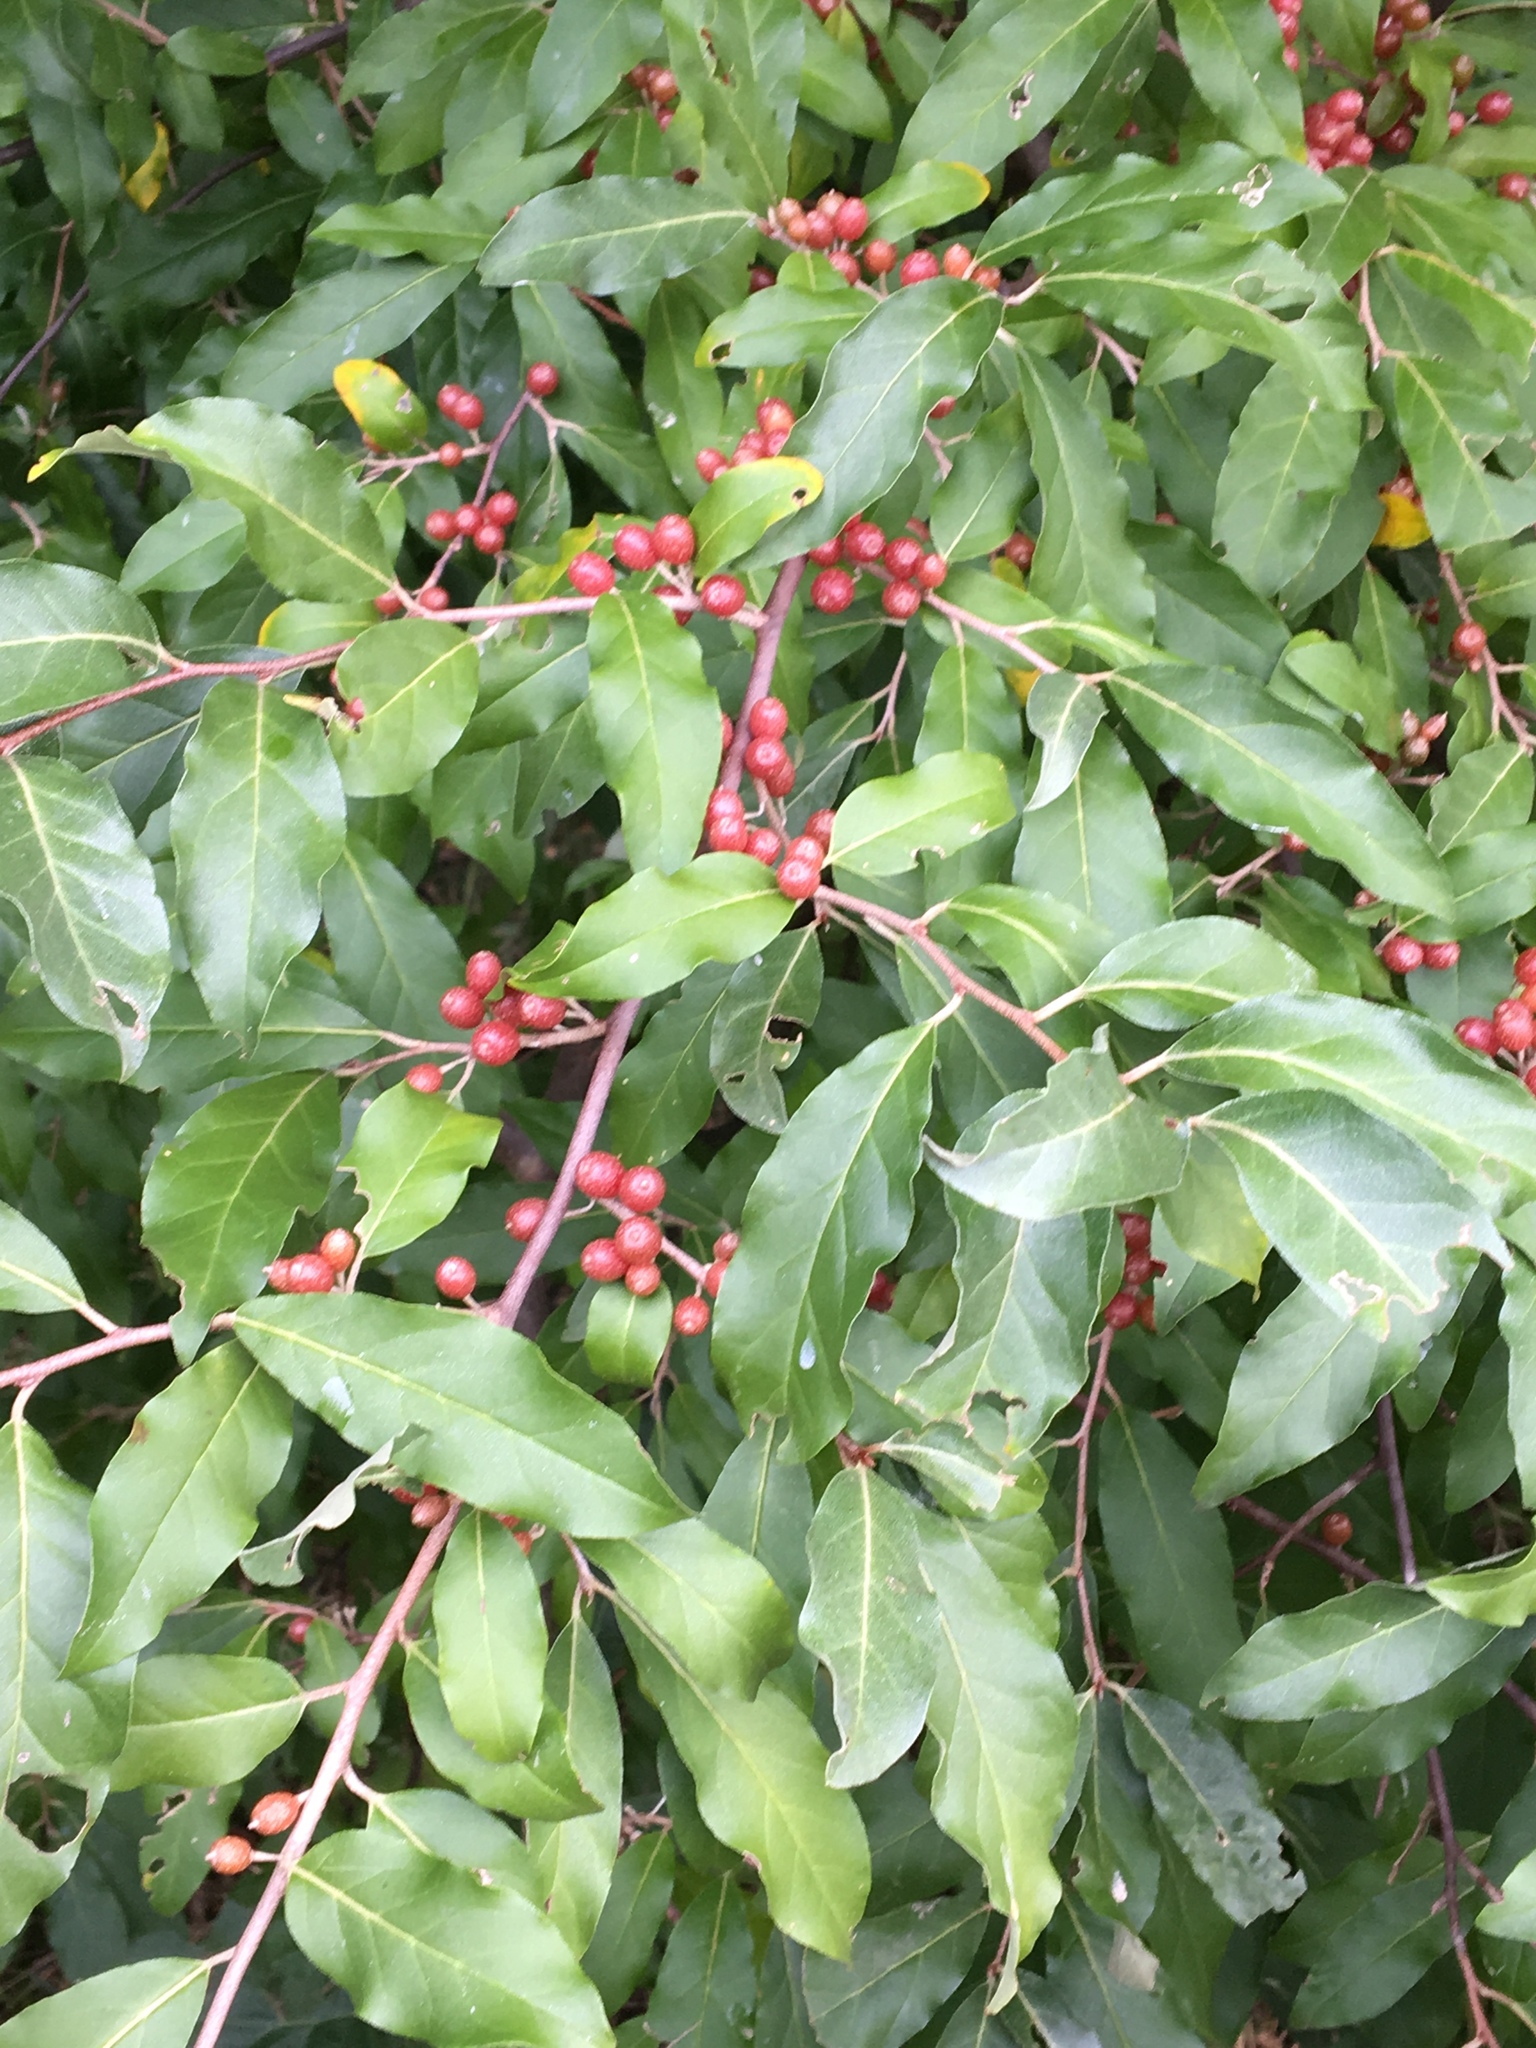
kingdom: Plantae
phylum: Tracheophyta
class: Magnoliopsida
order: Rosales
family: Elaeagnaceae
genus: Elaeagnus
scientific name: Elaeagnus umbellata
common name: Autumn olive
